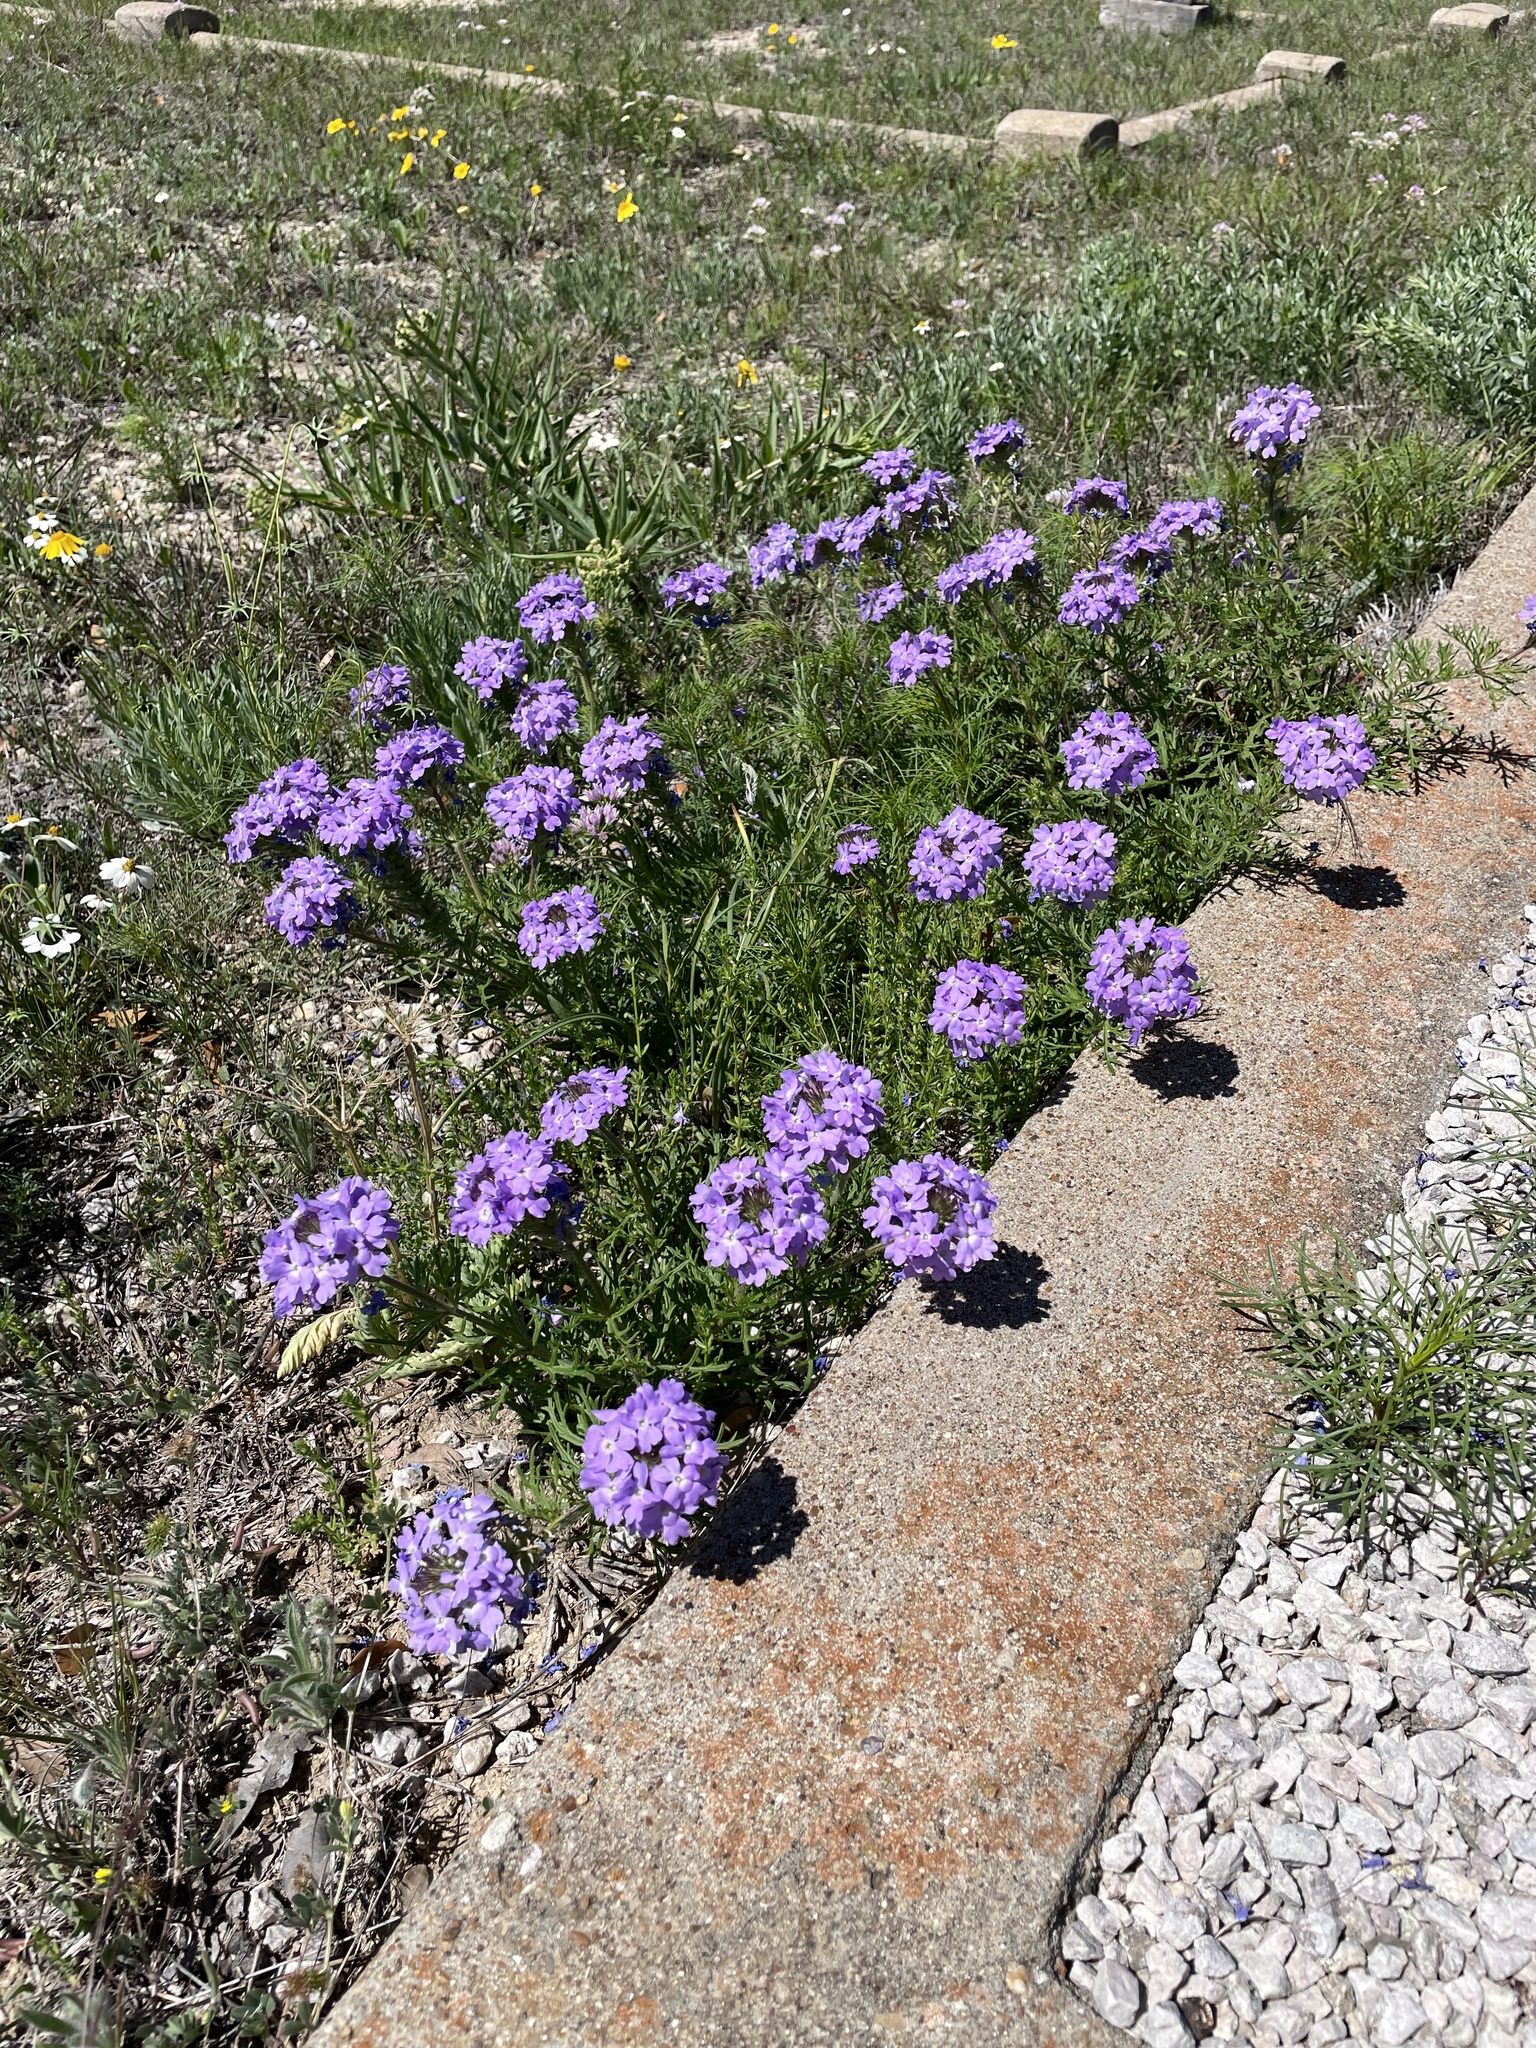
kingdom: Plantae
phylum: Tracheophyta
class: Magnoliopsida
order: Lamiales
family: Verbenaceae
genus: Verbena
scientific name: Verbena bipinnatifida
